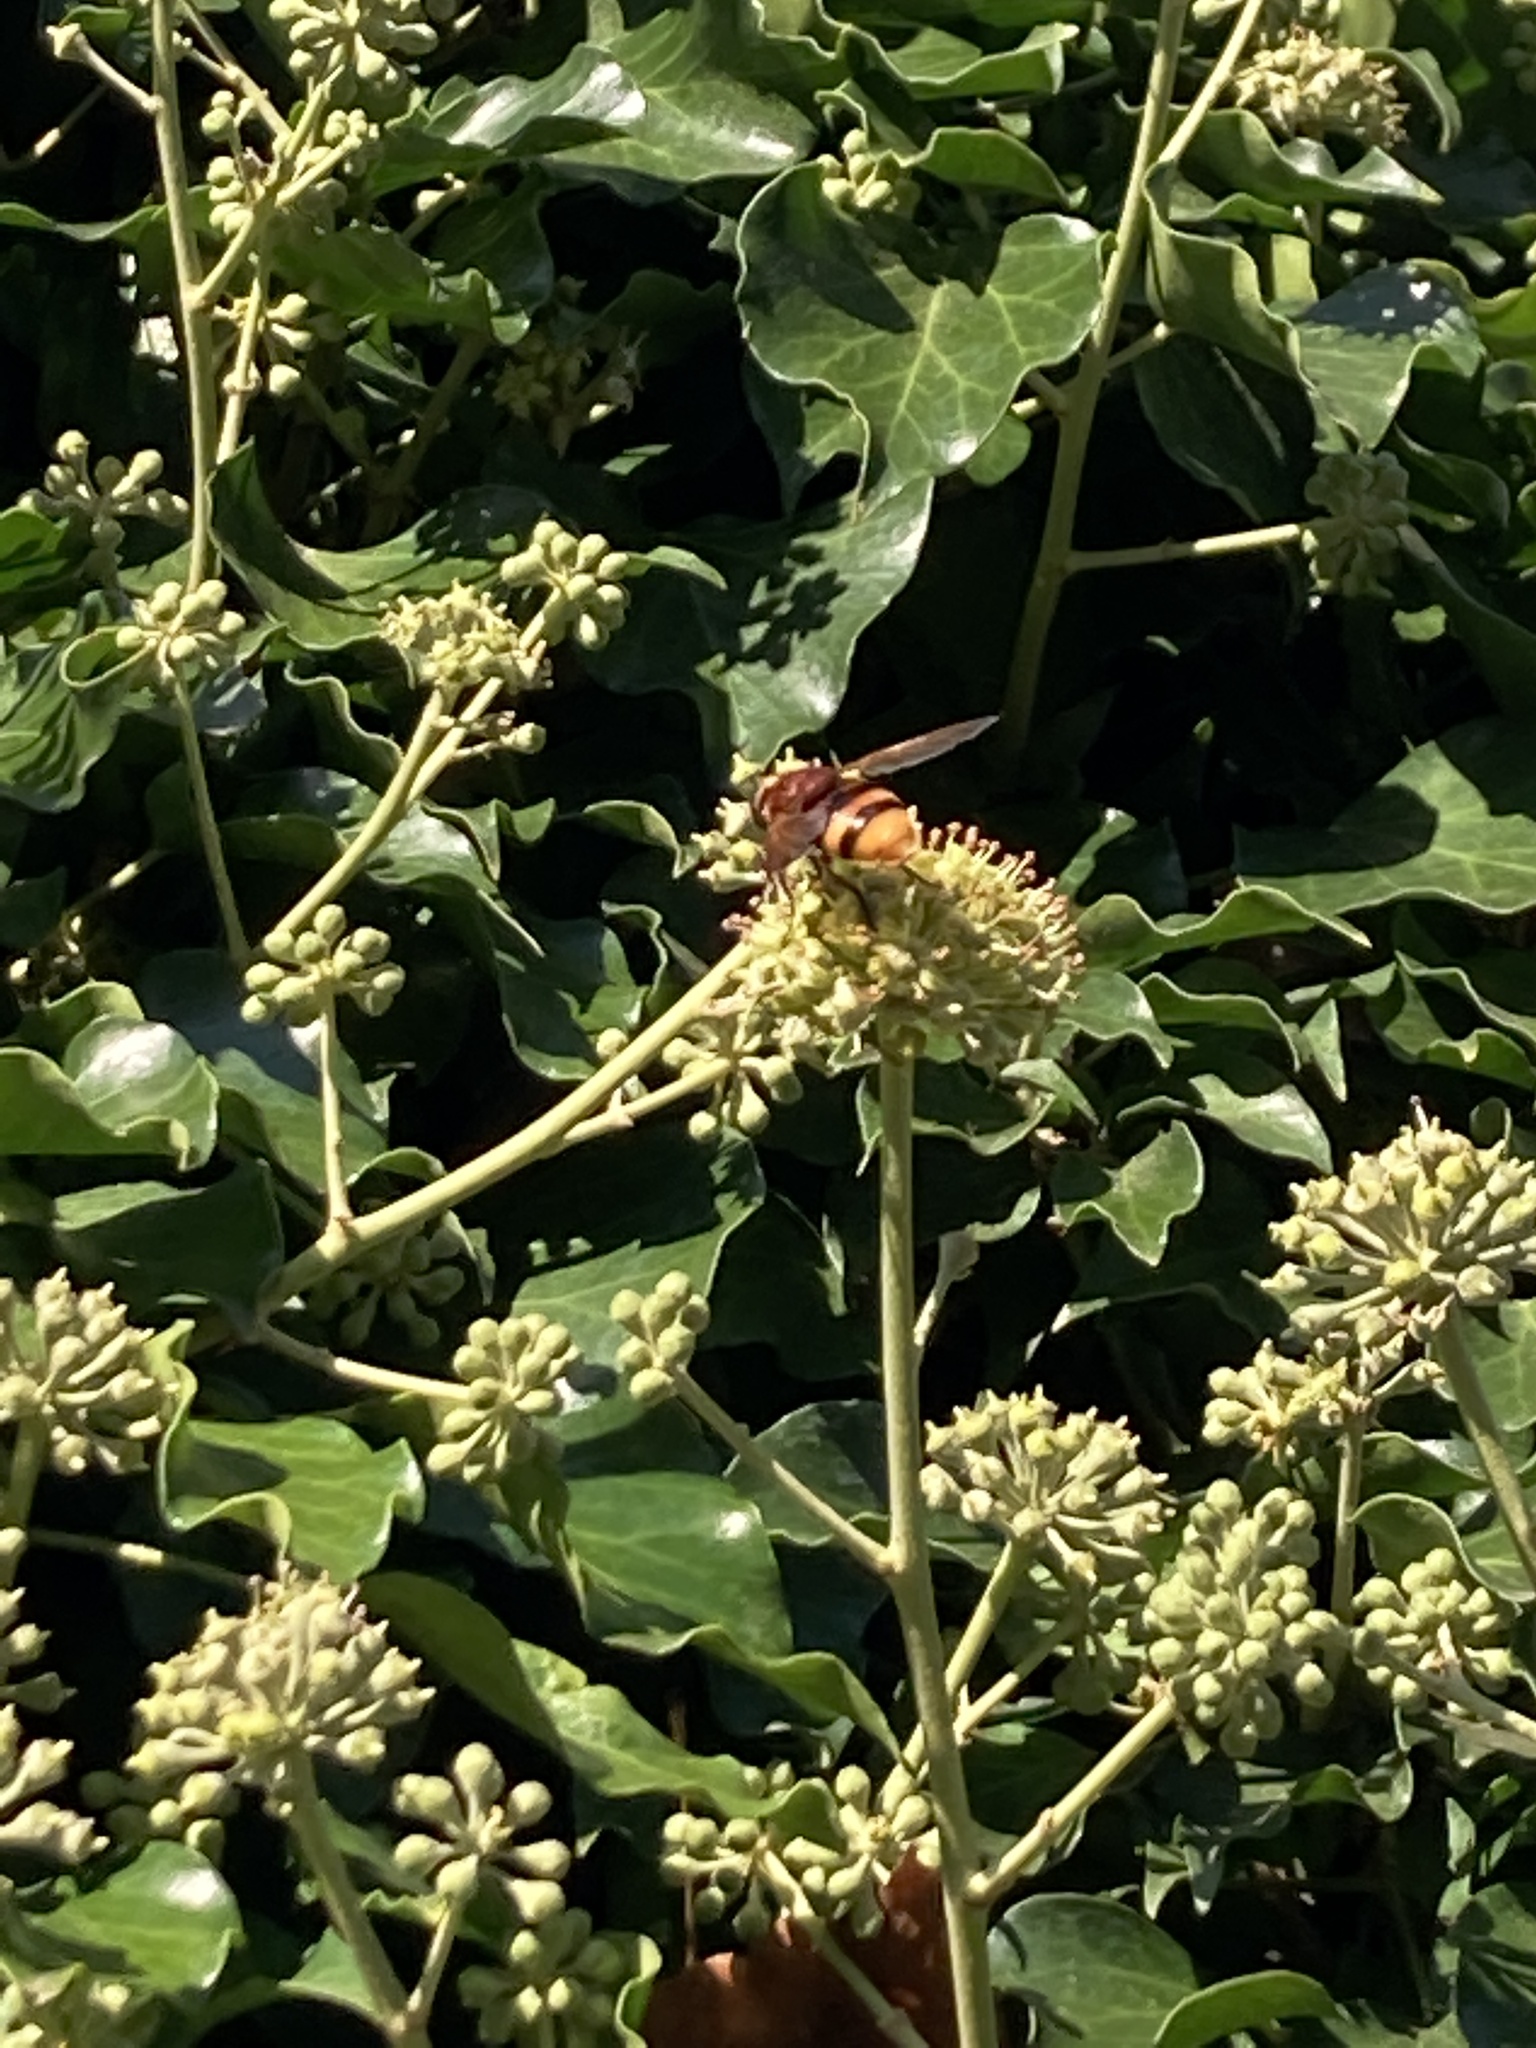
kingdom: Animalia
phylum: Arthropoda
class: Insecta
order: Diptera
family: Syrphidae
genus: Volucella
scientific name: Volucella zonaria
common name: Hornet hoverfly
